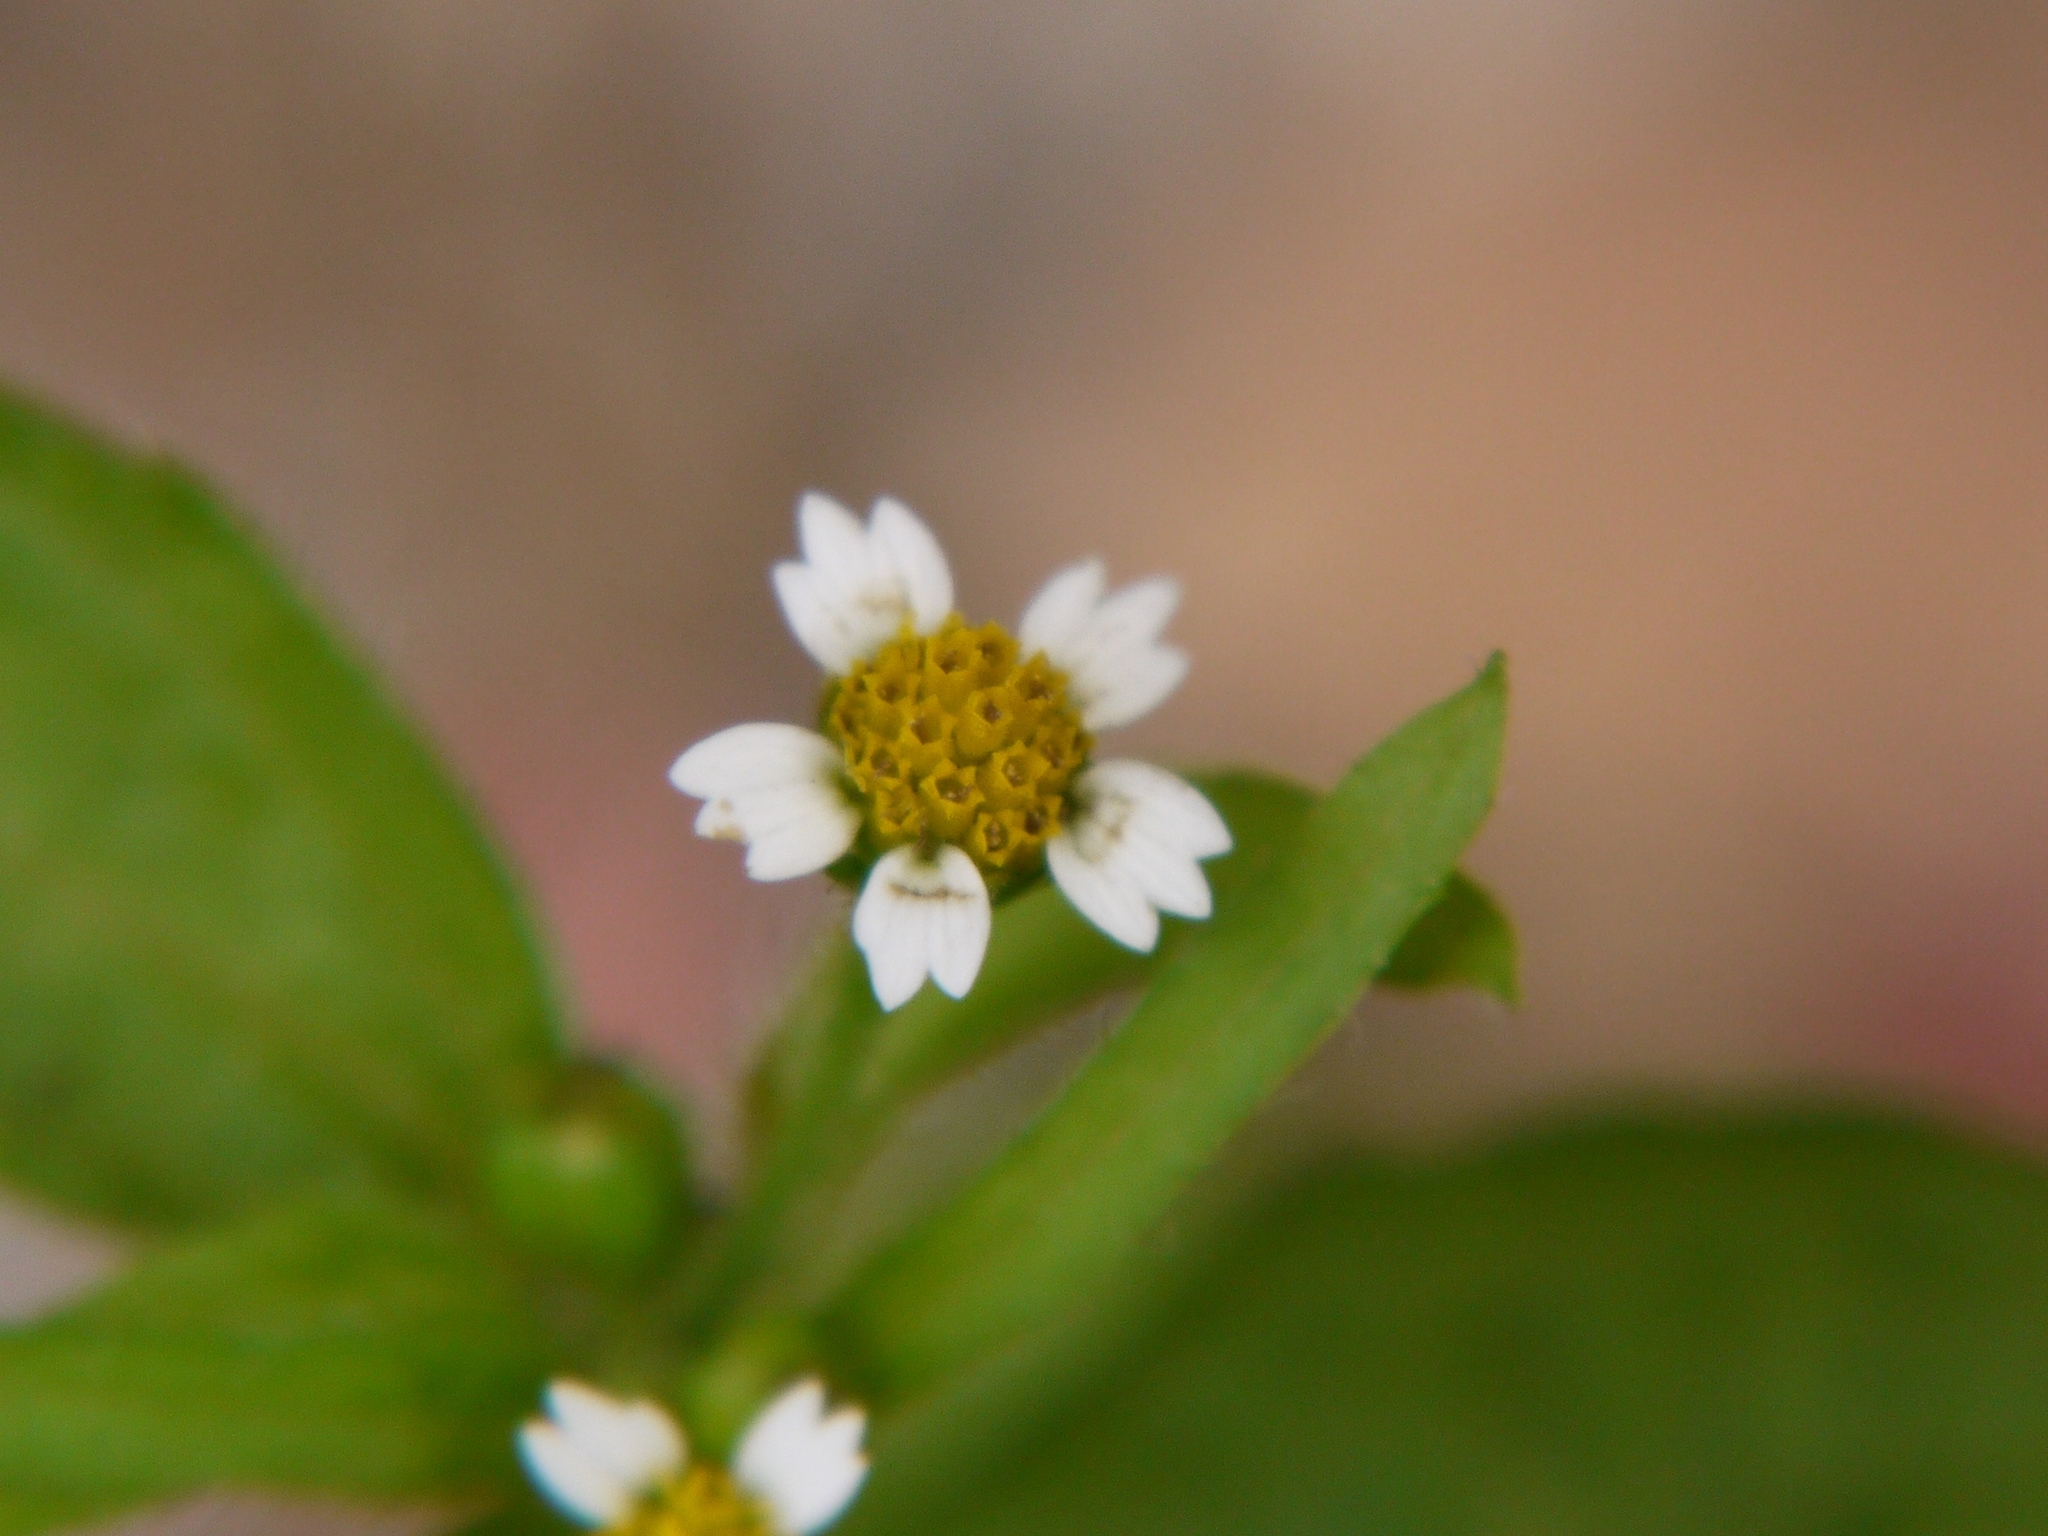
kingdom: Plantae
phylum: Tracheophyta
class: Magnoliopsida
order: Asterales
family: Asteraceae
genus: Galinsoga
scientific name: Galinsoga quadriradiata
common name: Shaggy soldier
